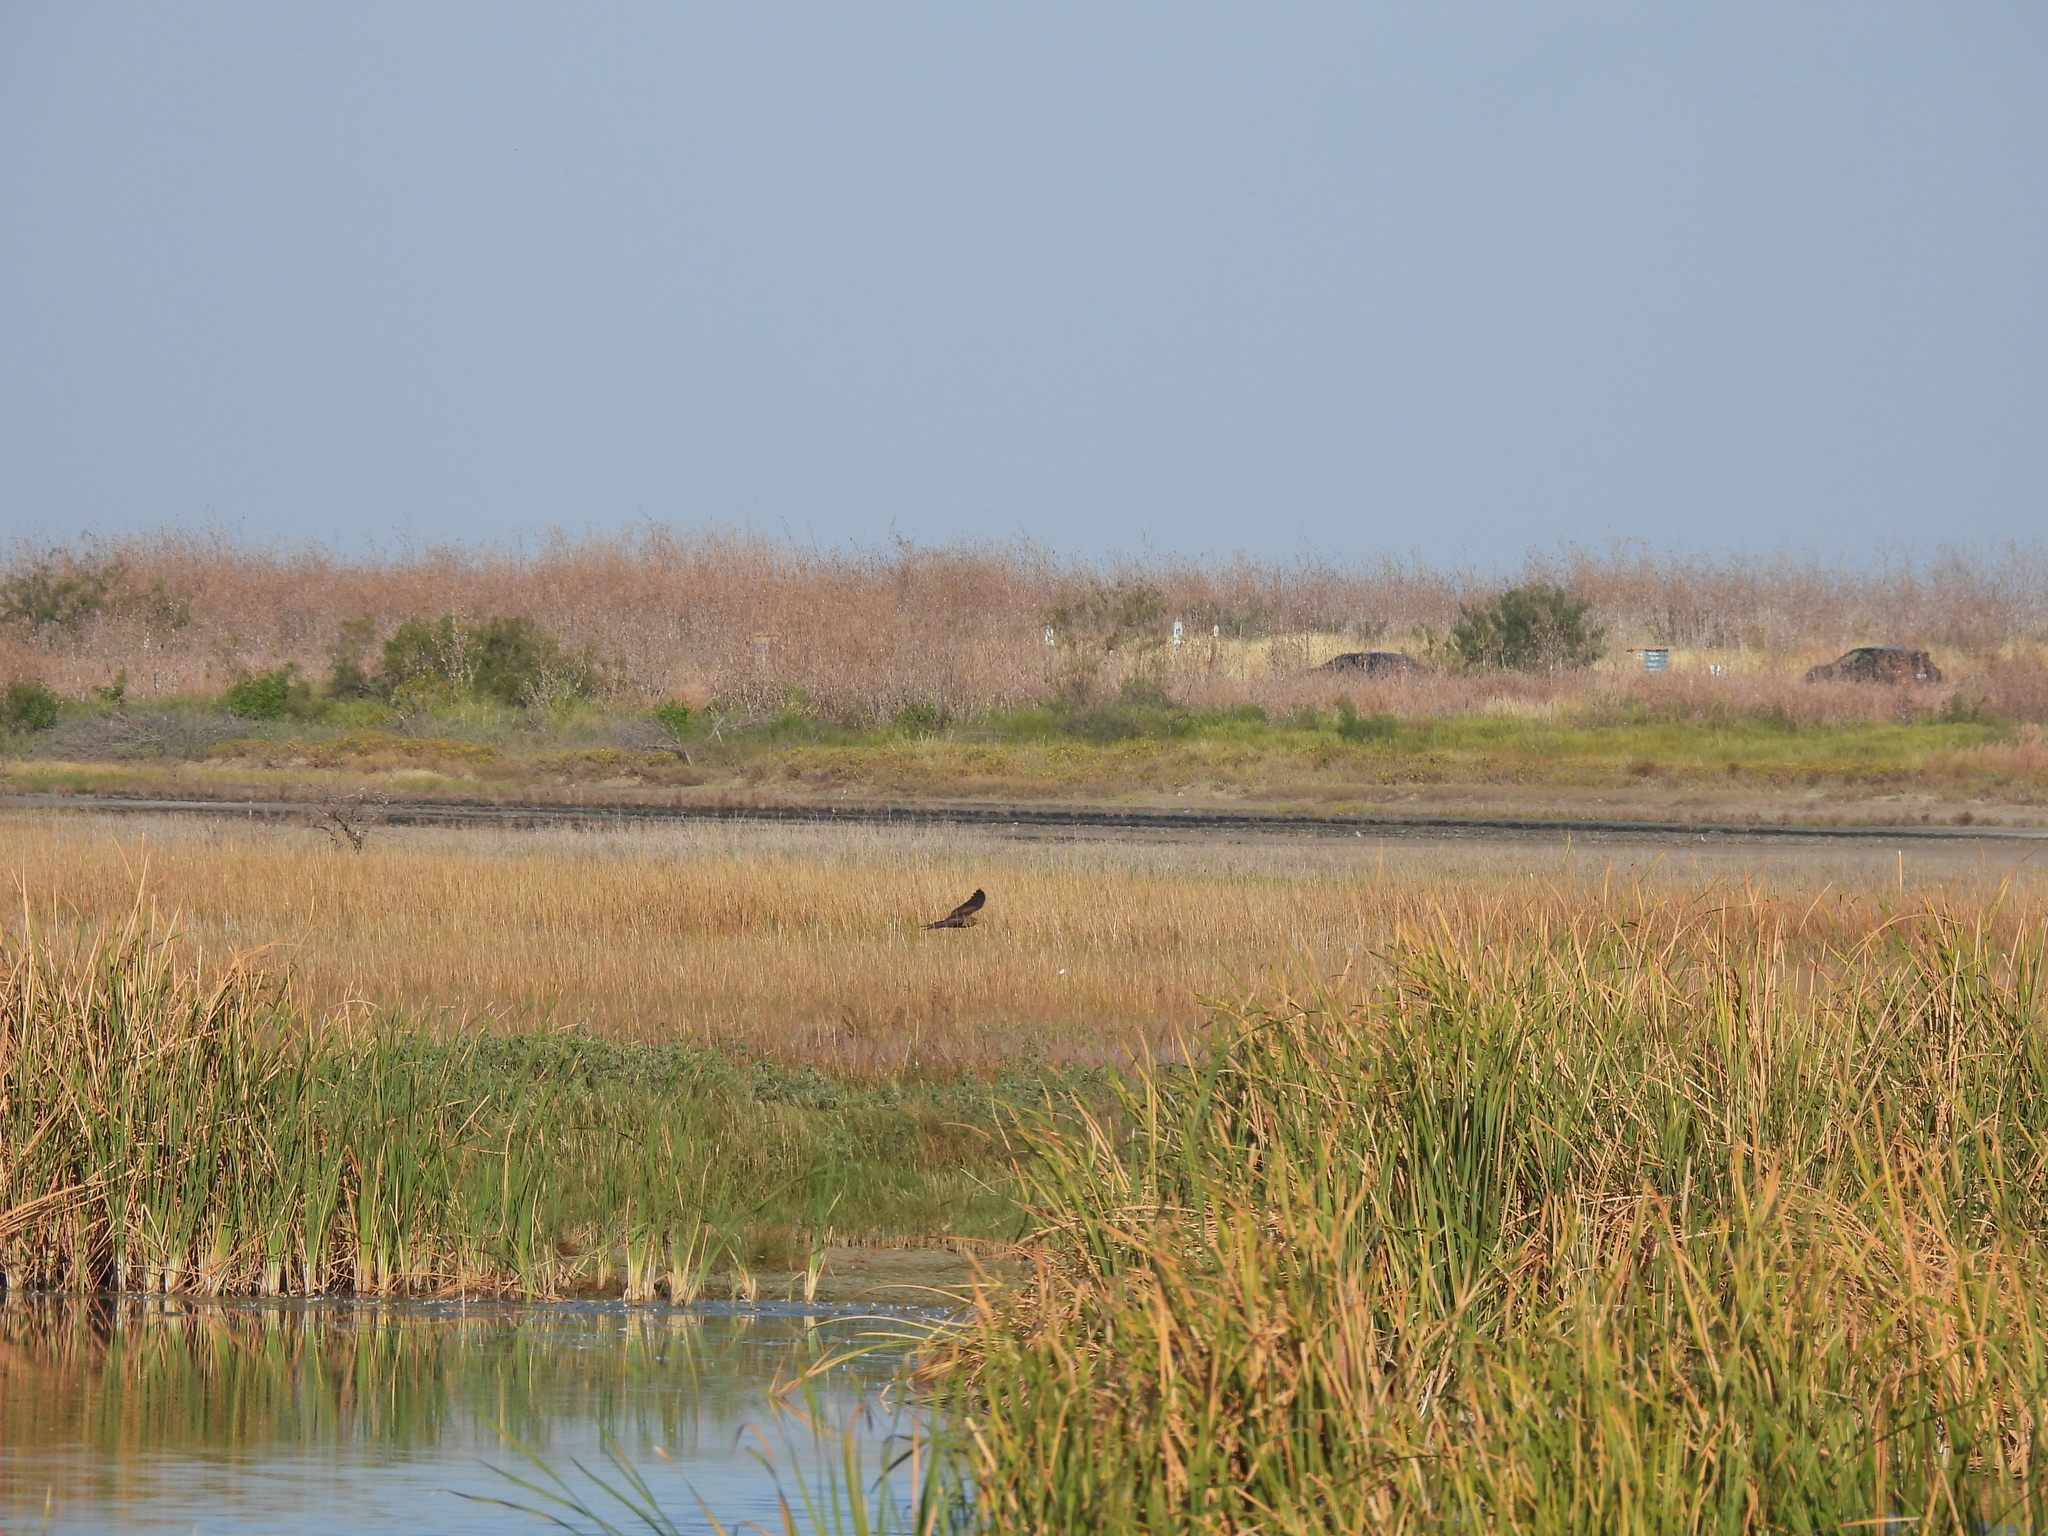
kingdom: Animalia
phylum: Chordata
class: Aves
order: Accipitriformes
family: Accipitridae
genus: Circus
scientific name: Circus cyaneus
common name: Hen harrier
